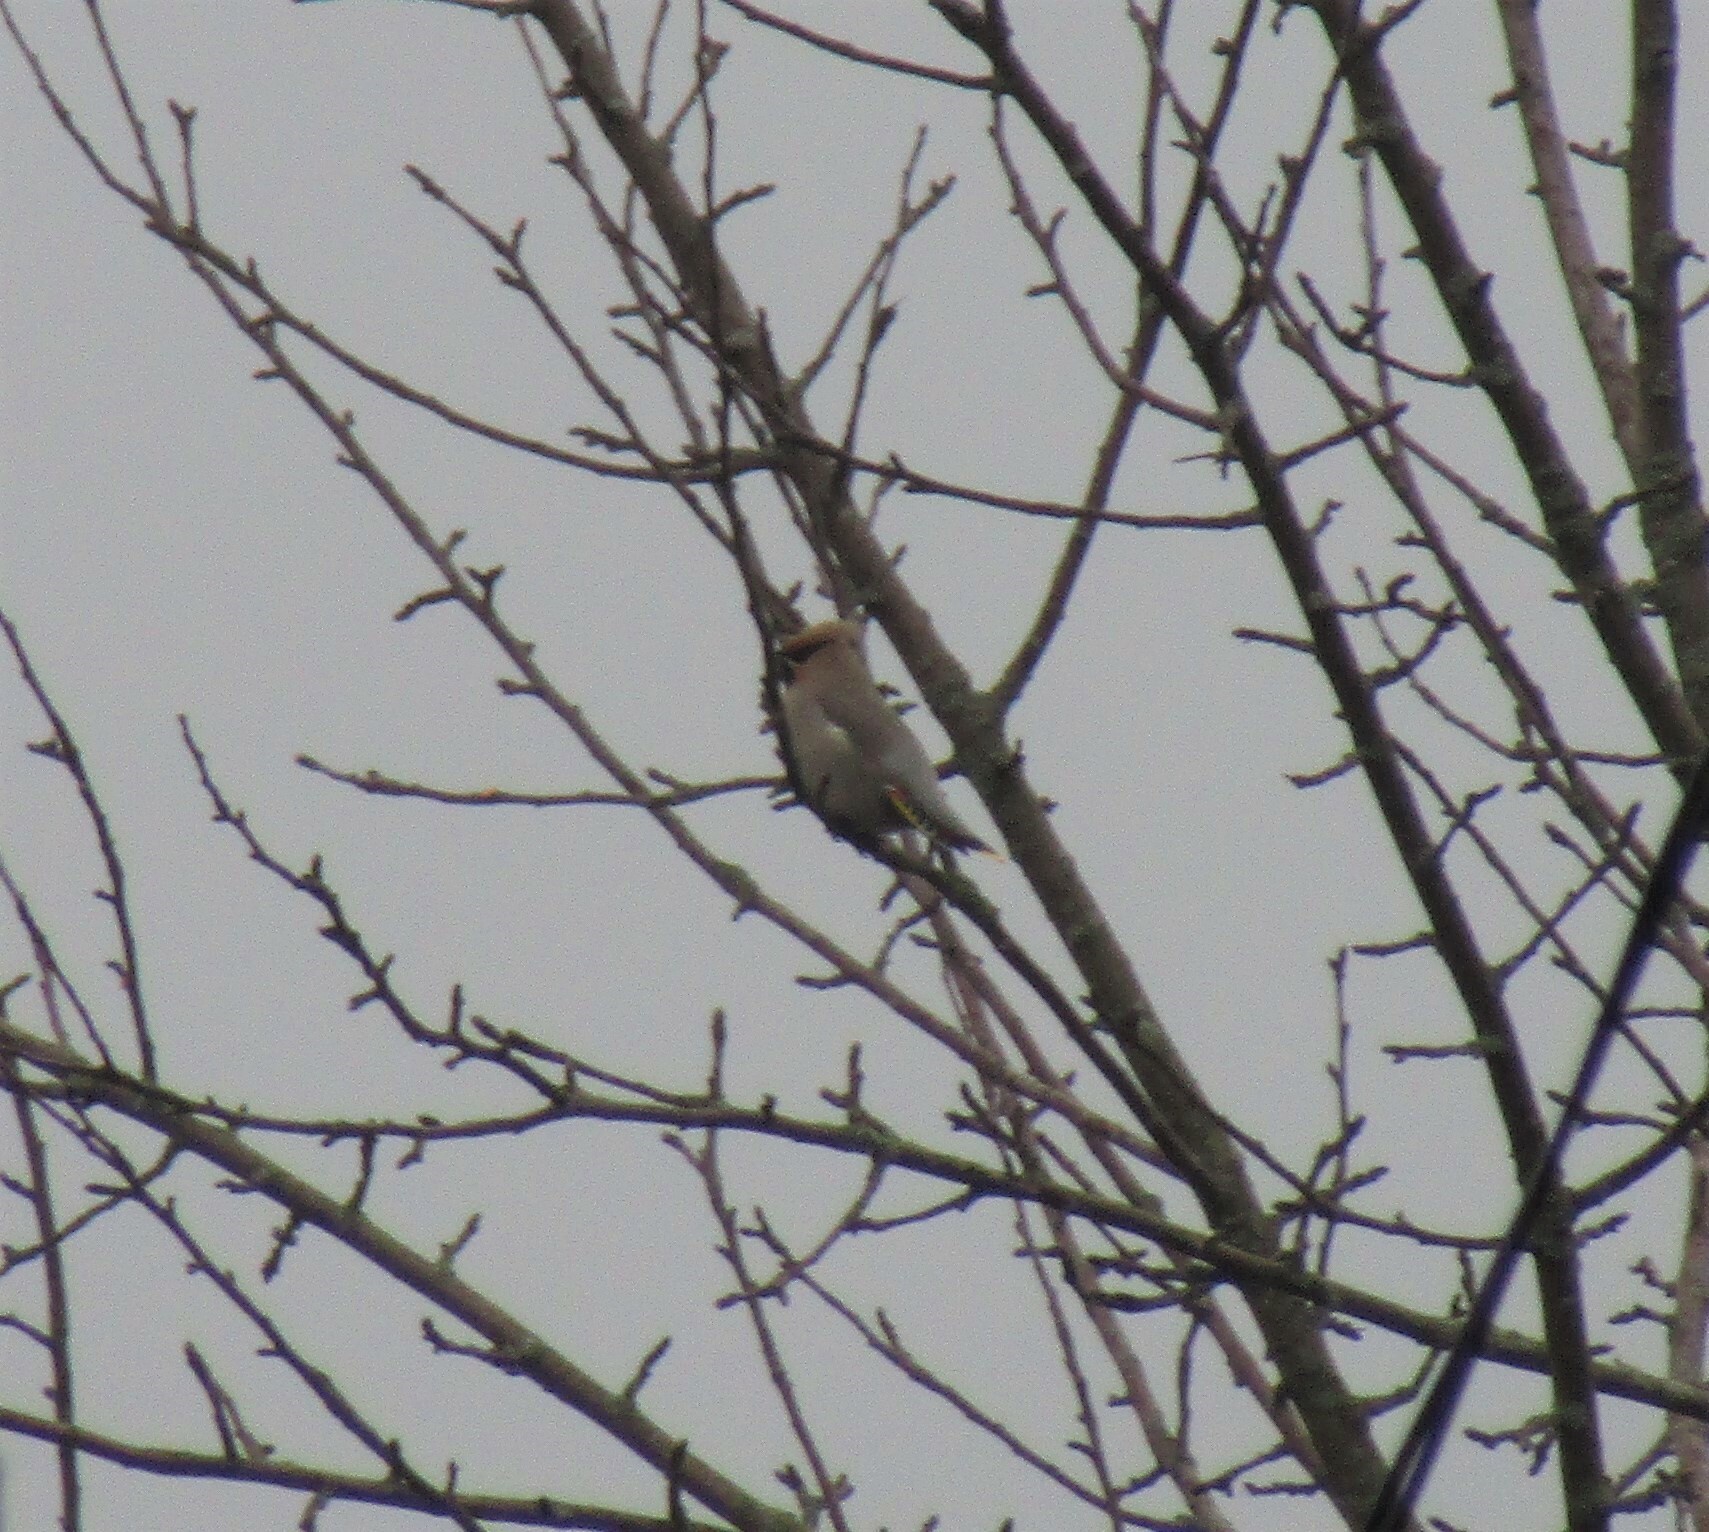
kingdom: Animalia
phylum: Chordata
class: Aves
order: Passeriformes
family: Bombycillidae
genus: Bombycilla
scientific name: Bombycilla garrulus
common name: Bohemian waxwing
